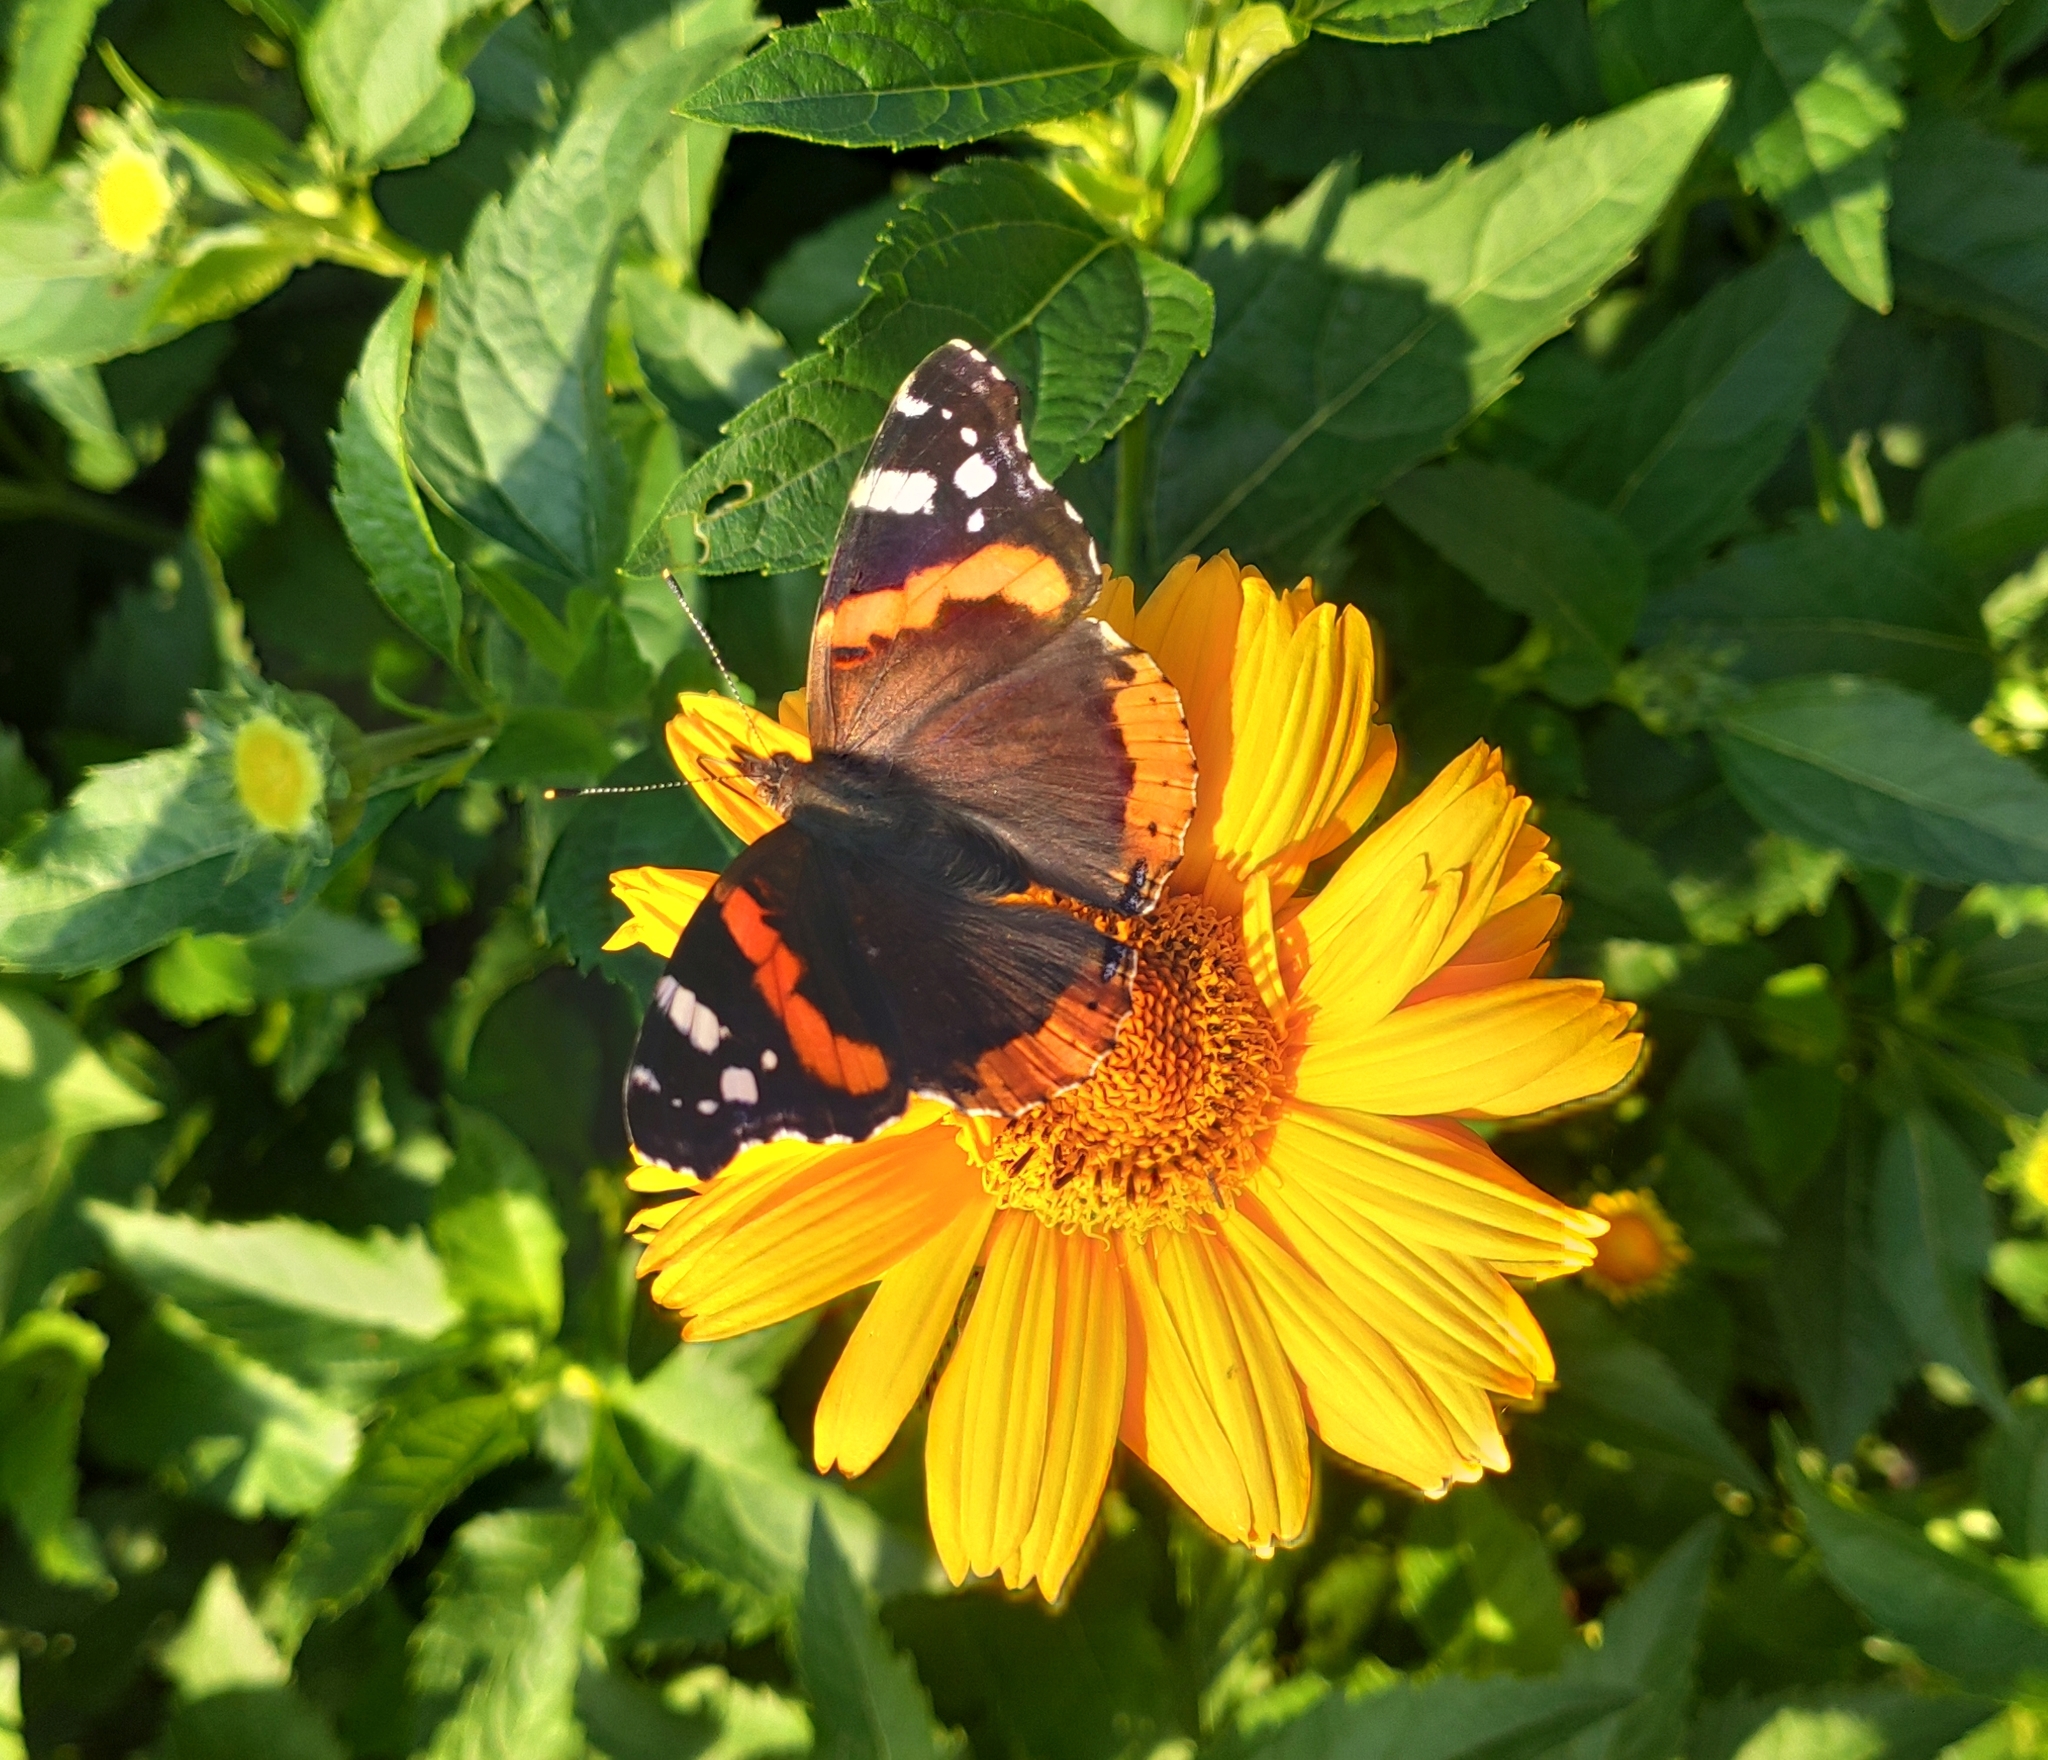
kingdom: Animalia
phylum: Arthropoda
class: Insecta
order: Lepidoptera
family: Nymphalidae
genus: Vanessa
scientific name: Vanessa atalanta
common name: Red admiral
